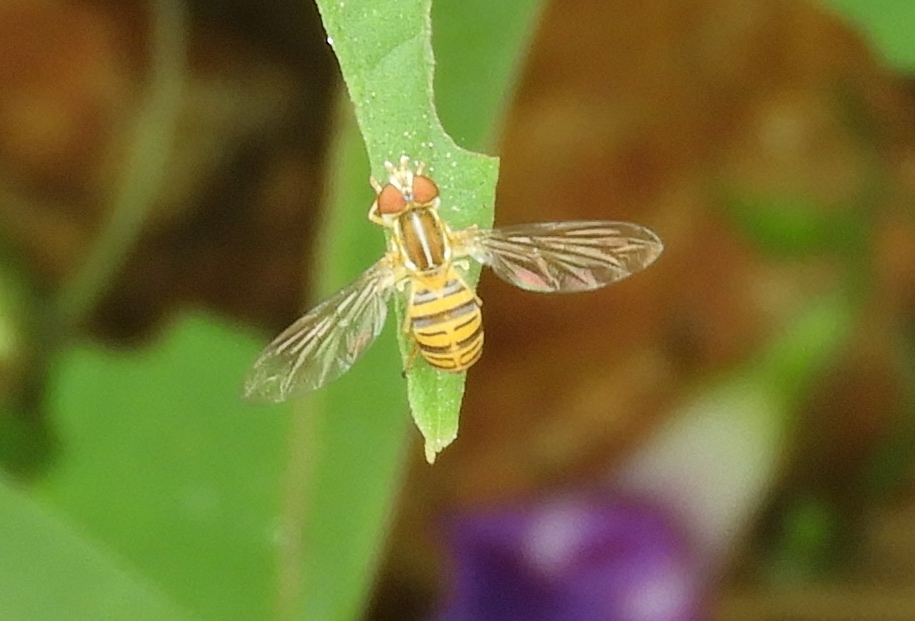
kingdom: Animalia
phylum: Arthropoda
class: Insecta
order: Diptera
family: Syrphidae
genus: Toxomerus
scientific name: Toxomerus politus
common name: Maize calligrapher
